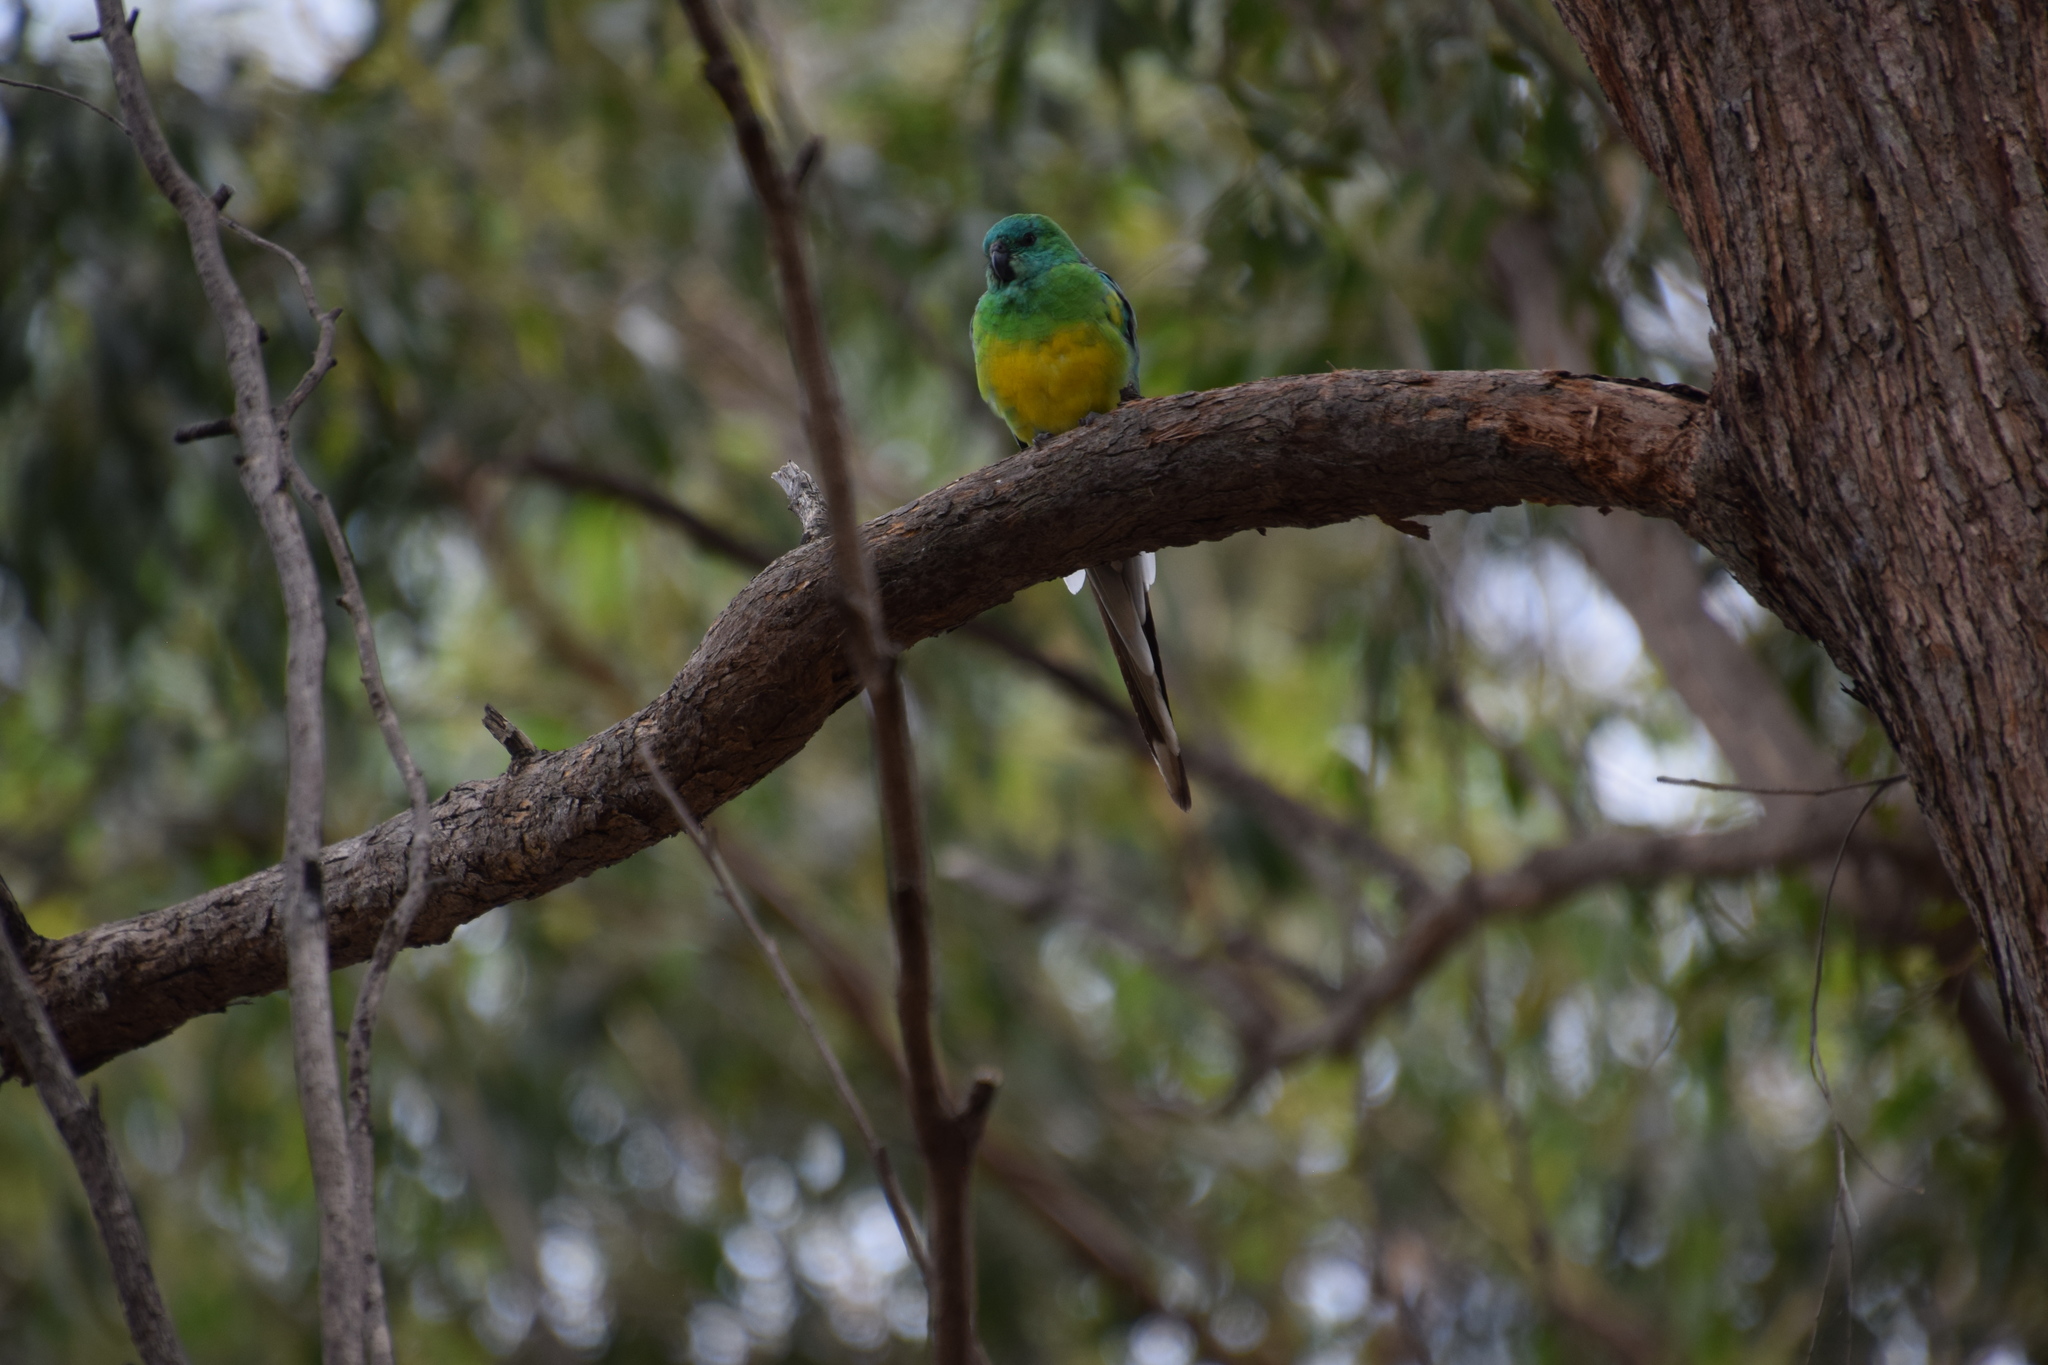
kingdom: Animalia
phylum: Chordata
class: Aves
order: Psittaciformes
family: Psittacidae
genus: Psephotus
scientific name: Psephotus haematonotus
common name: Red-rumped parrot
